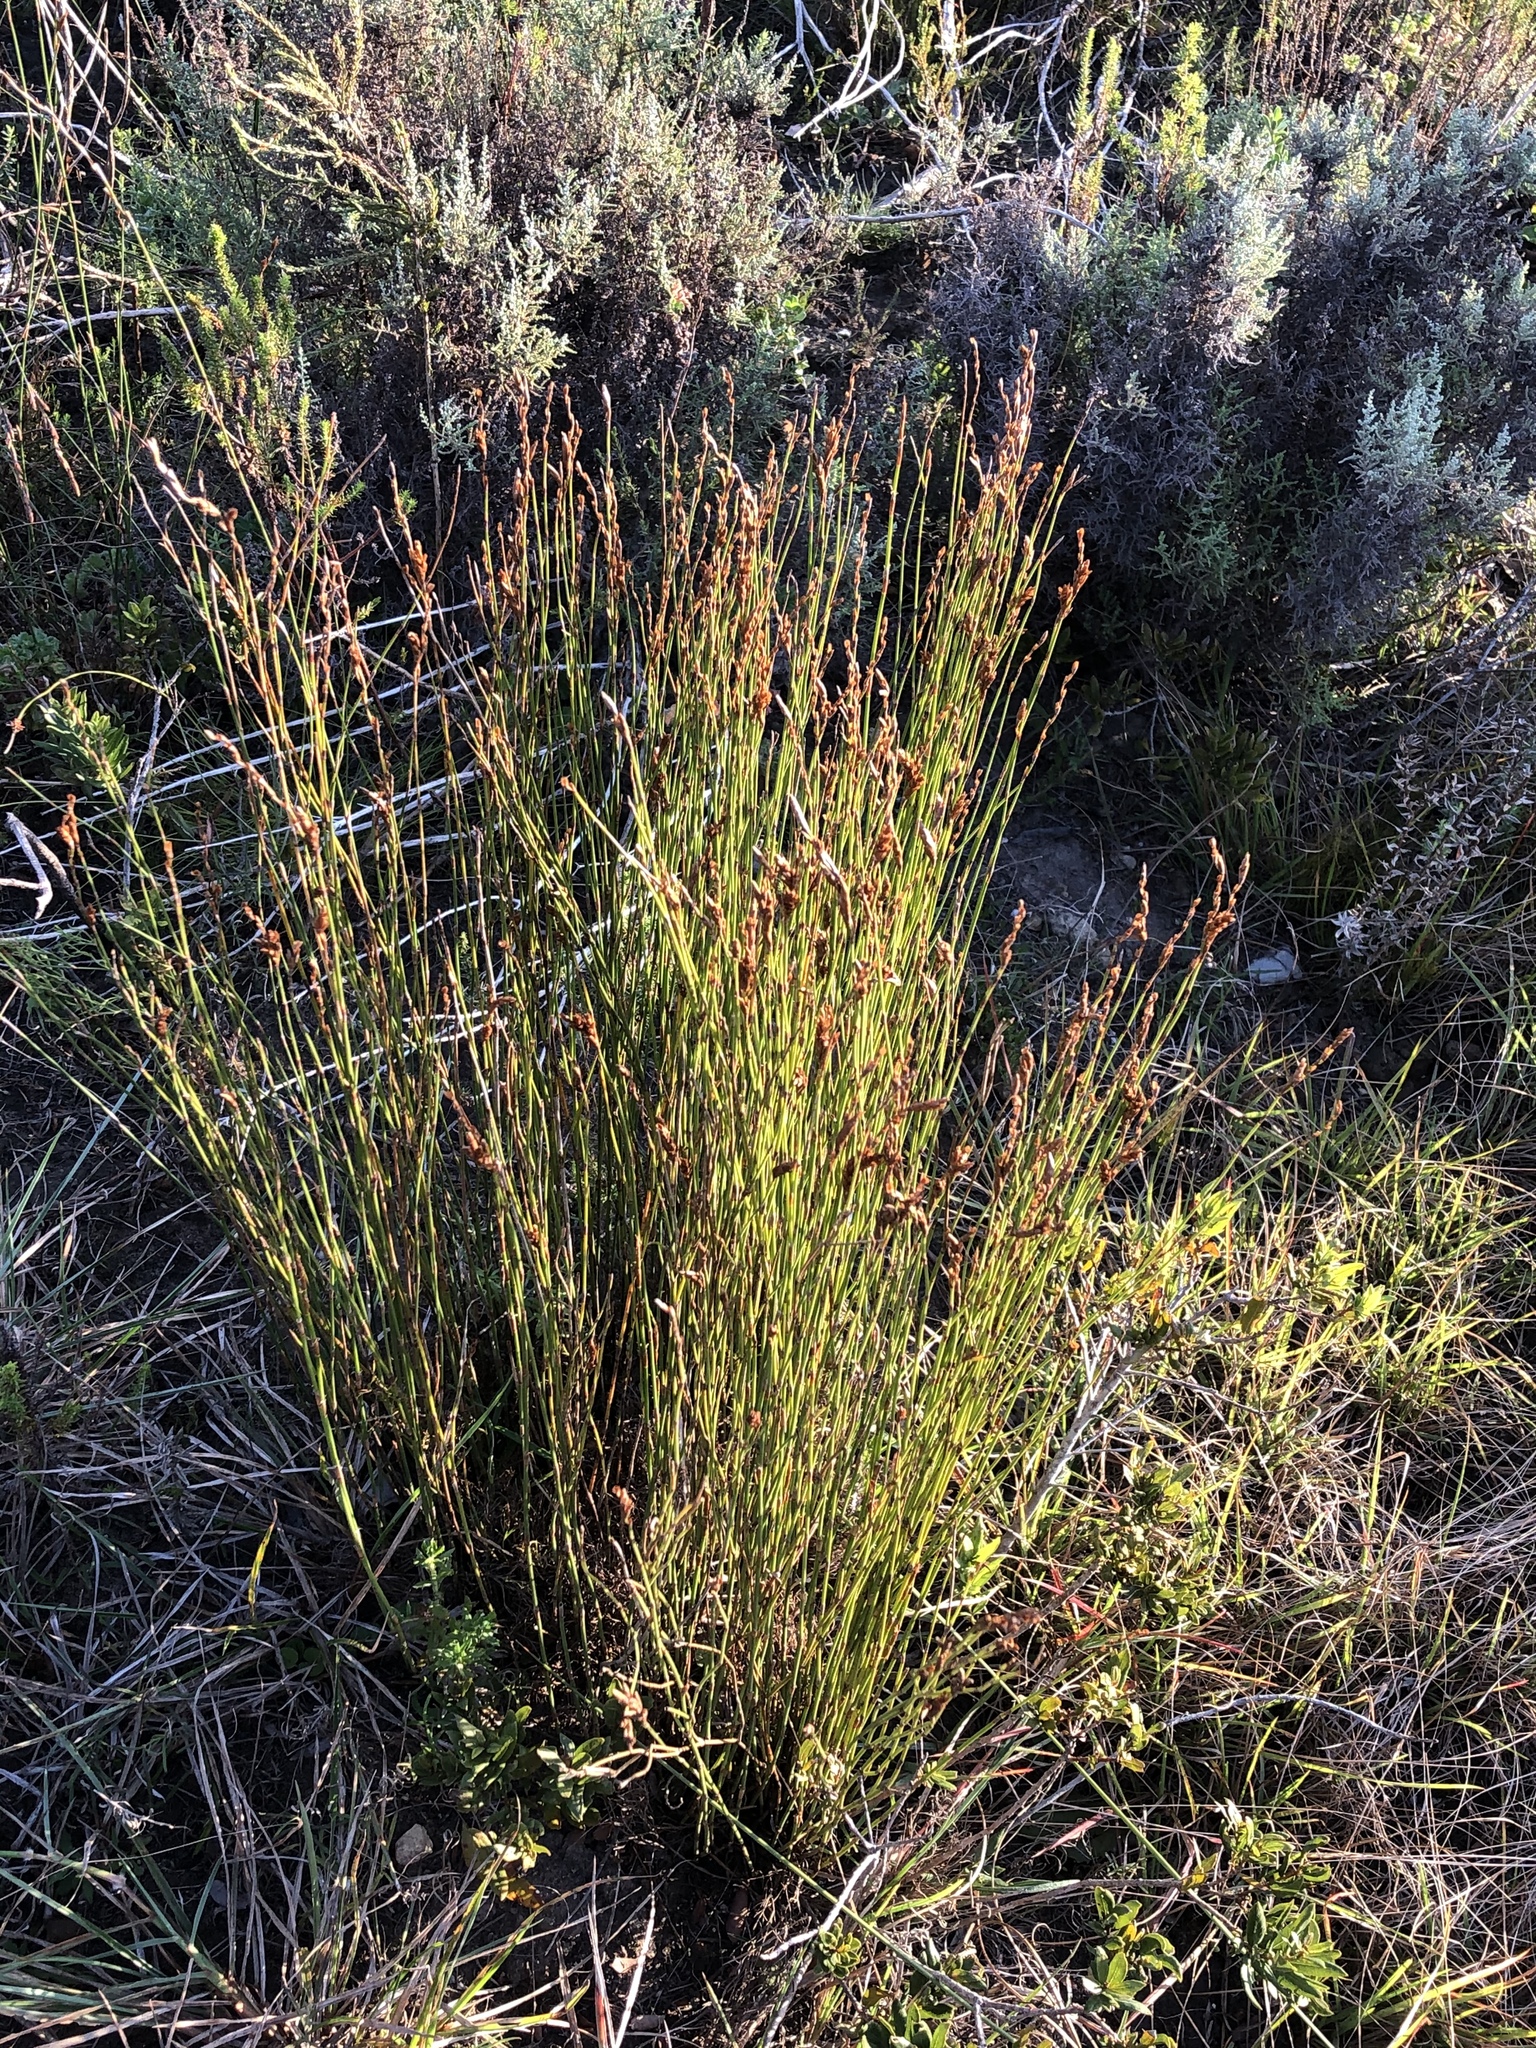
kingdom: Plantae
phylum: Tracheophyta
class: Liliopsida
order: Poales
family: Restionaceae
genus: Restio
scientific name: Restio triticeus
